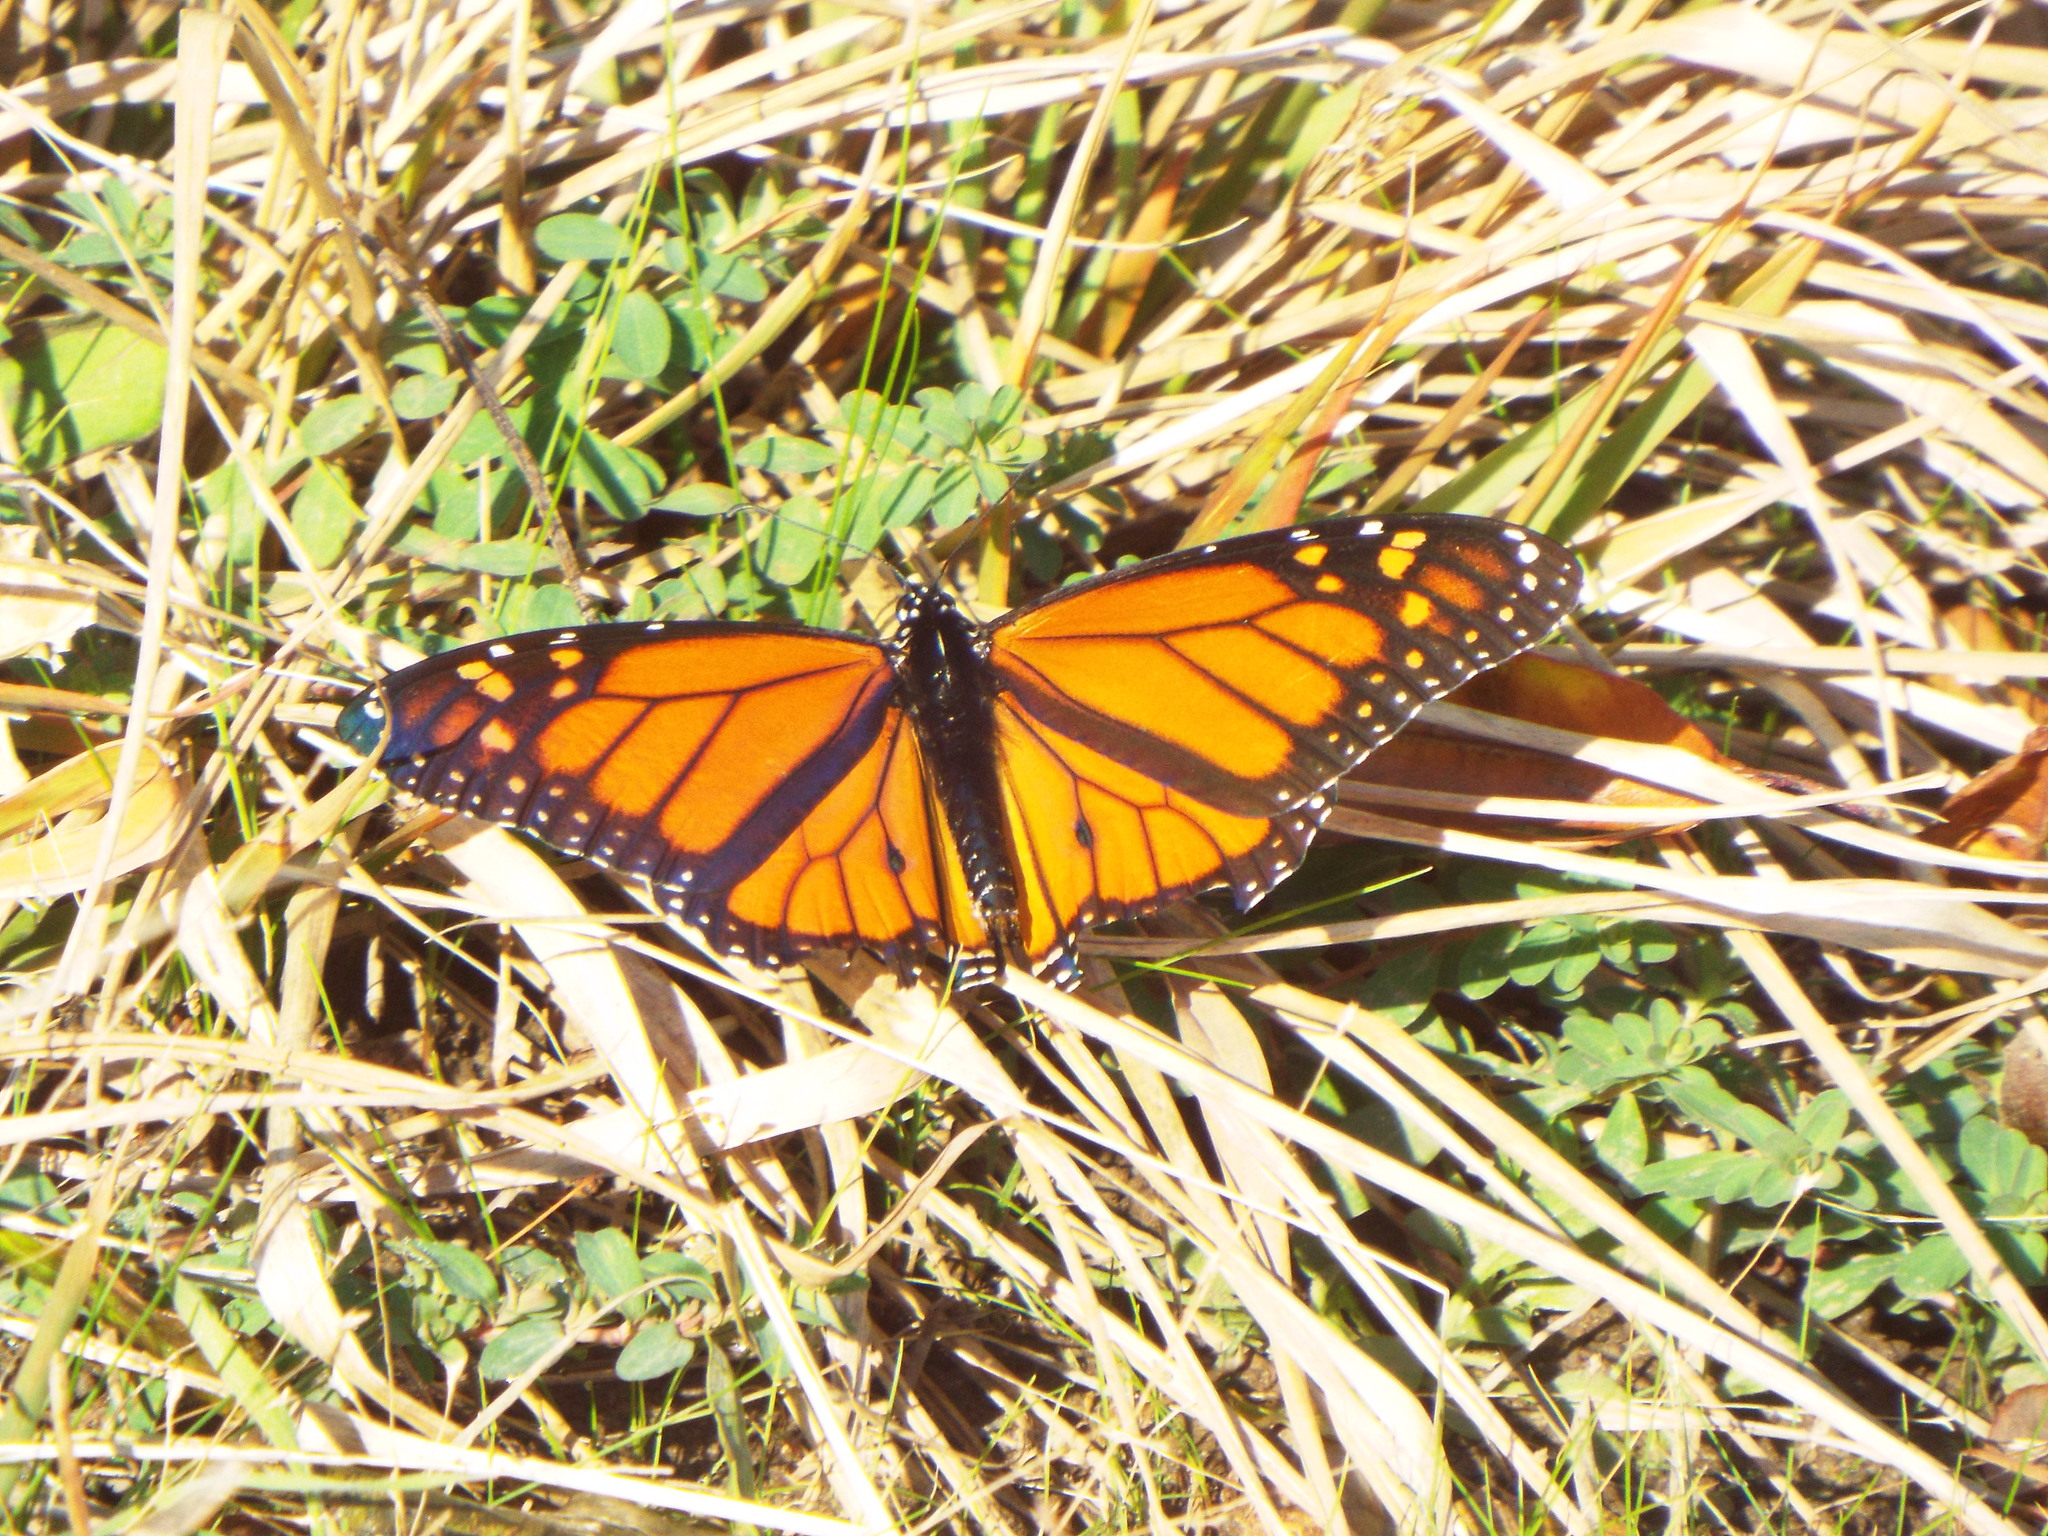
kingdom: Animalia
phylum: Arthropoda
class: Insecta
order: Lepidoptera
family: Nymphalidae
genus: Danaus
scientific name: Danaus plexippus
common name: Monarch
